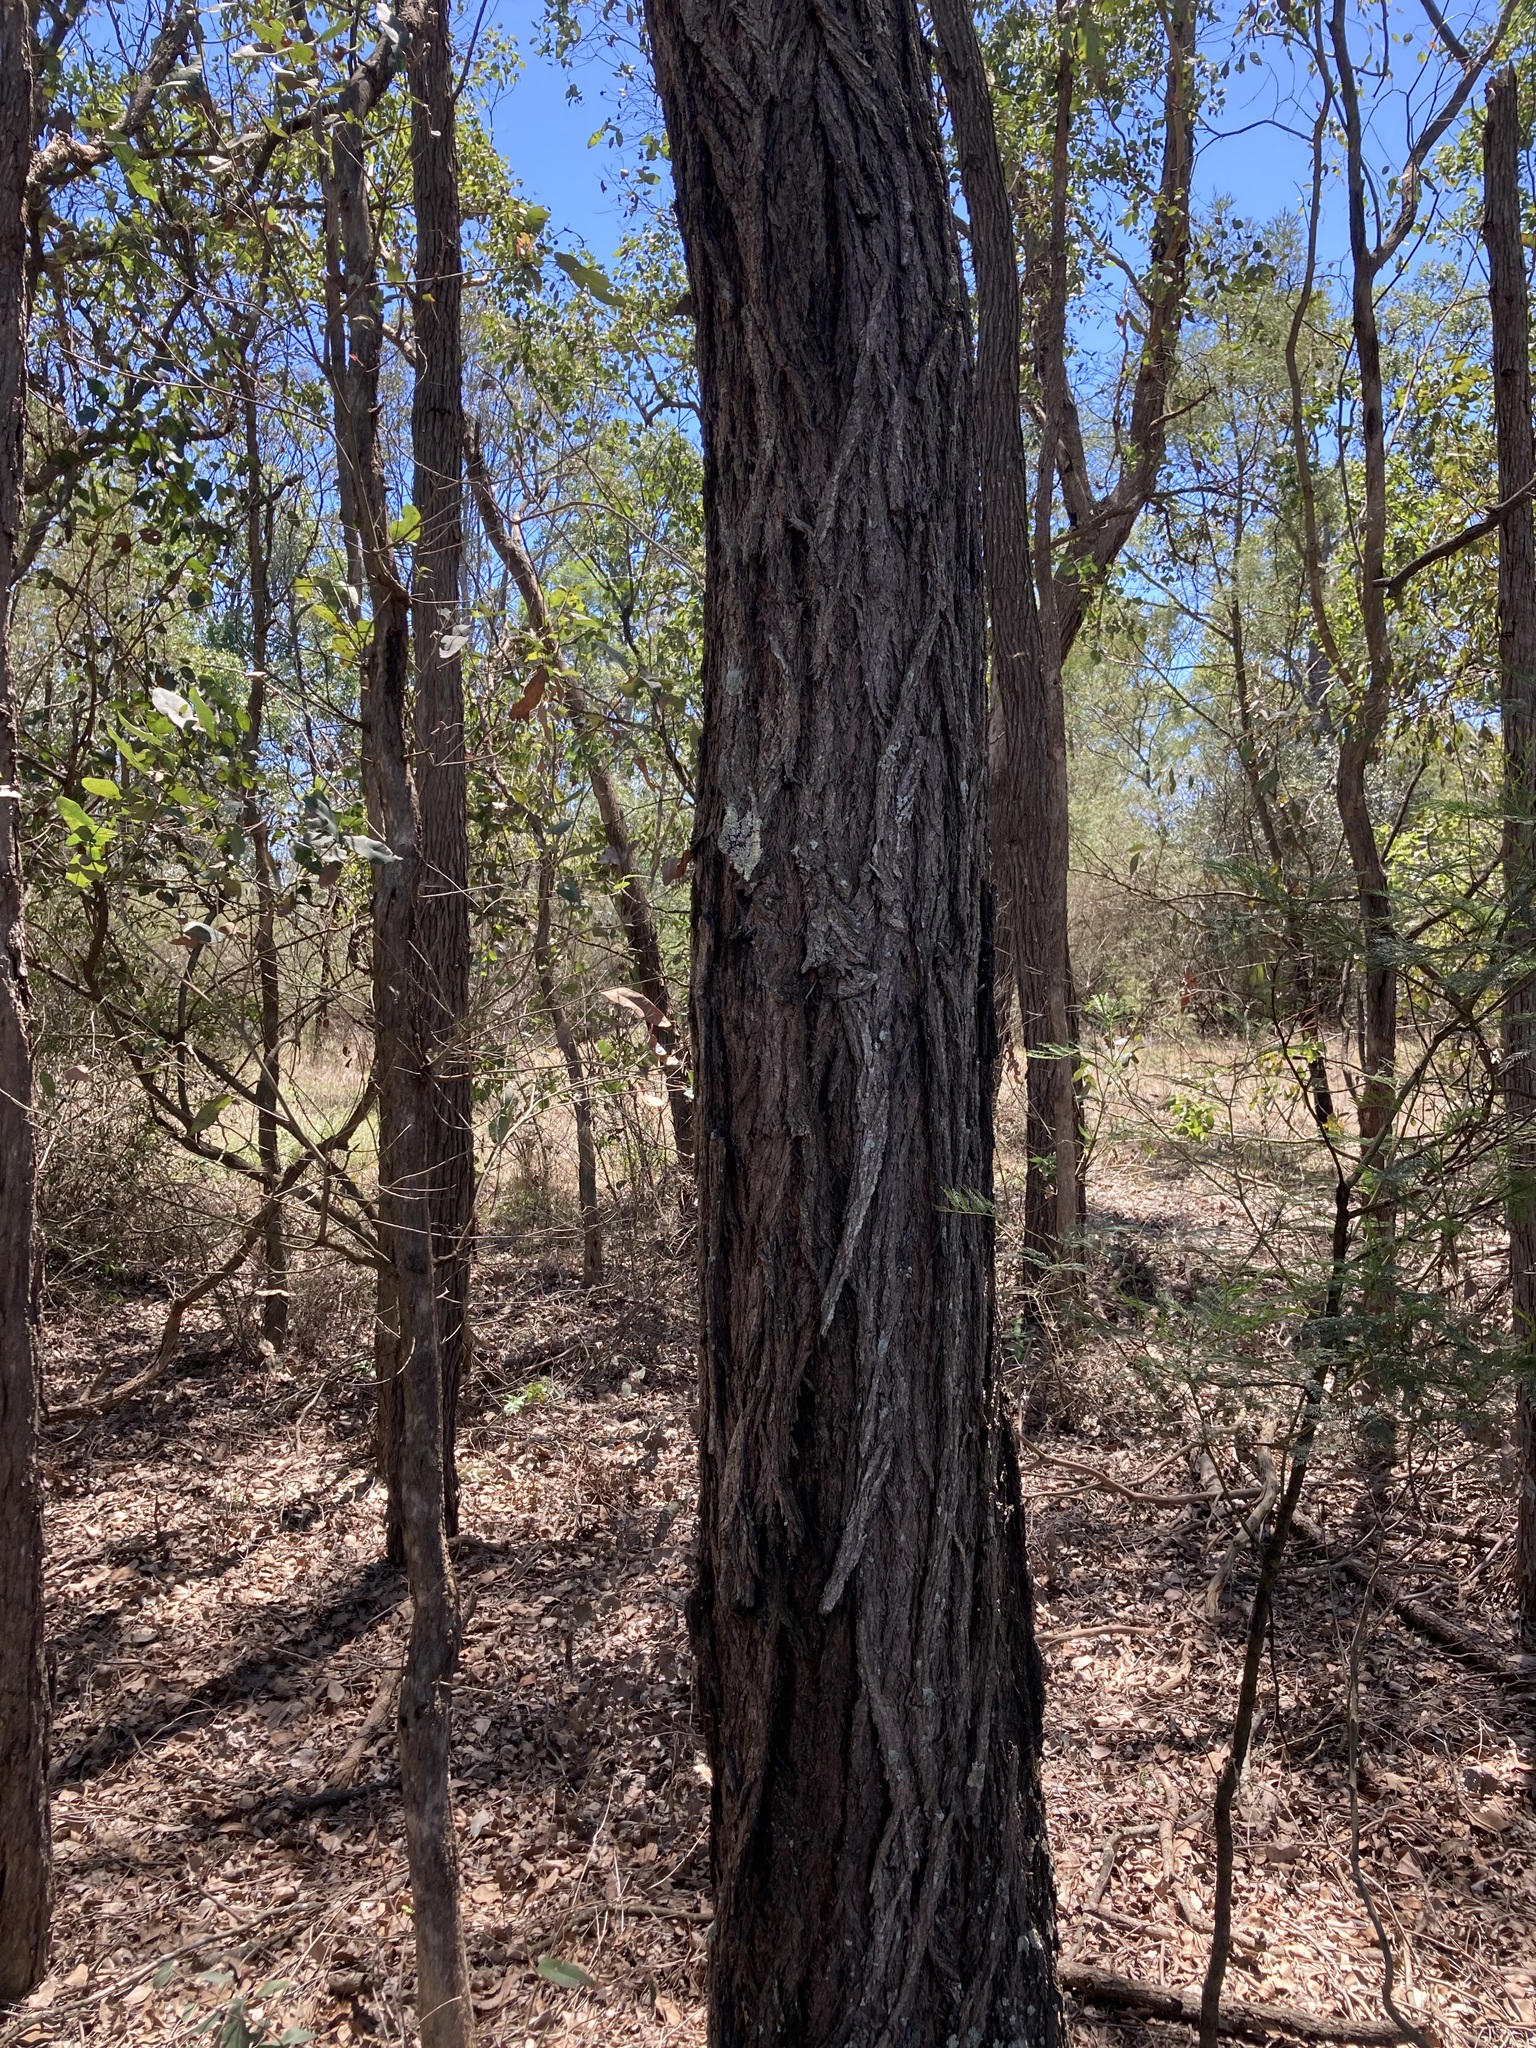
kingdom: Plantae
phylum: Tracheophyta
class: Magnoliopsida
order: Myrtales
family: Myrtaceae
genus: Eucalyptus
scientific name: Eucalyptus fibrosa
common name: Red ironbark
